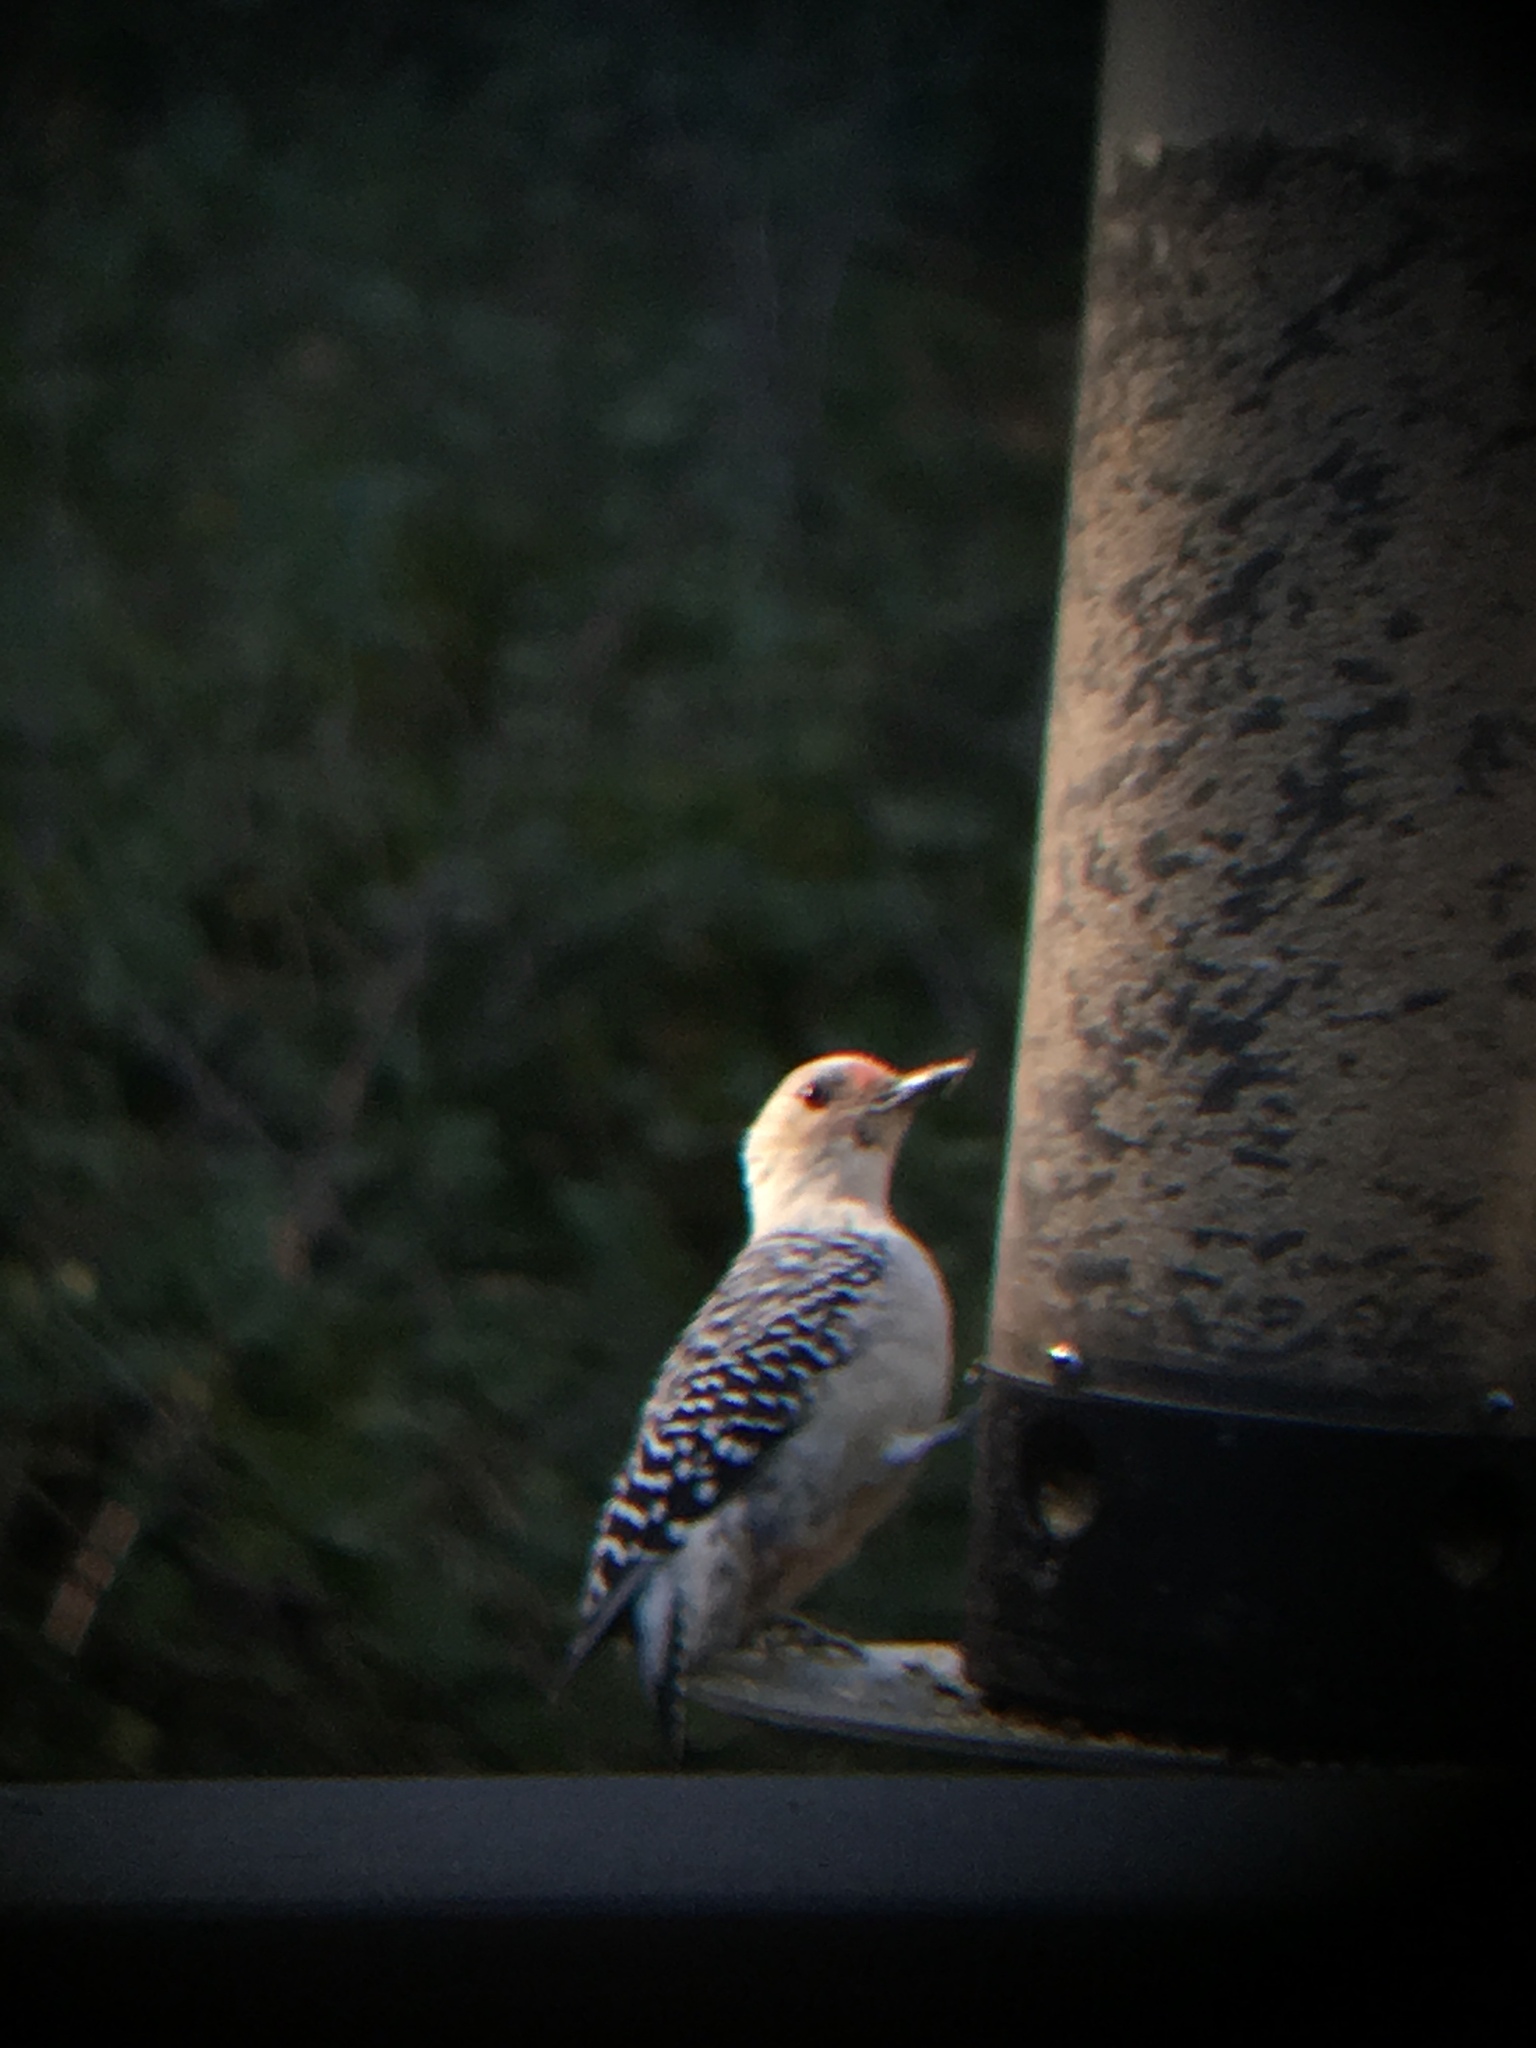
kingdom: Animalia
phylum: Chordata
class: Aves
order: Piciformes
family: Picidae
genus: Melanerpes
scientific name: Melanerpes carolinus
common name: Red-bellied woodpecker
